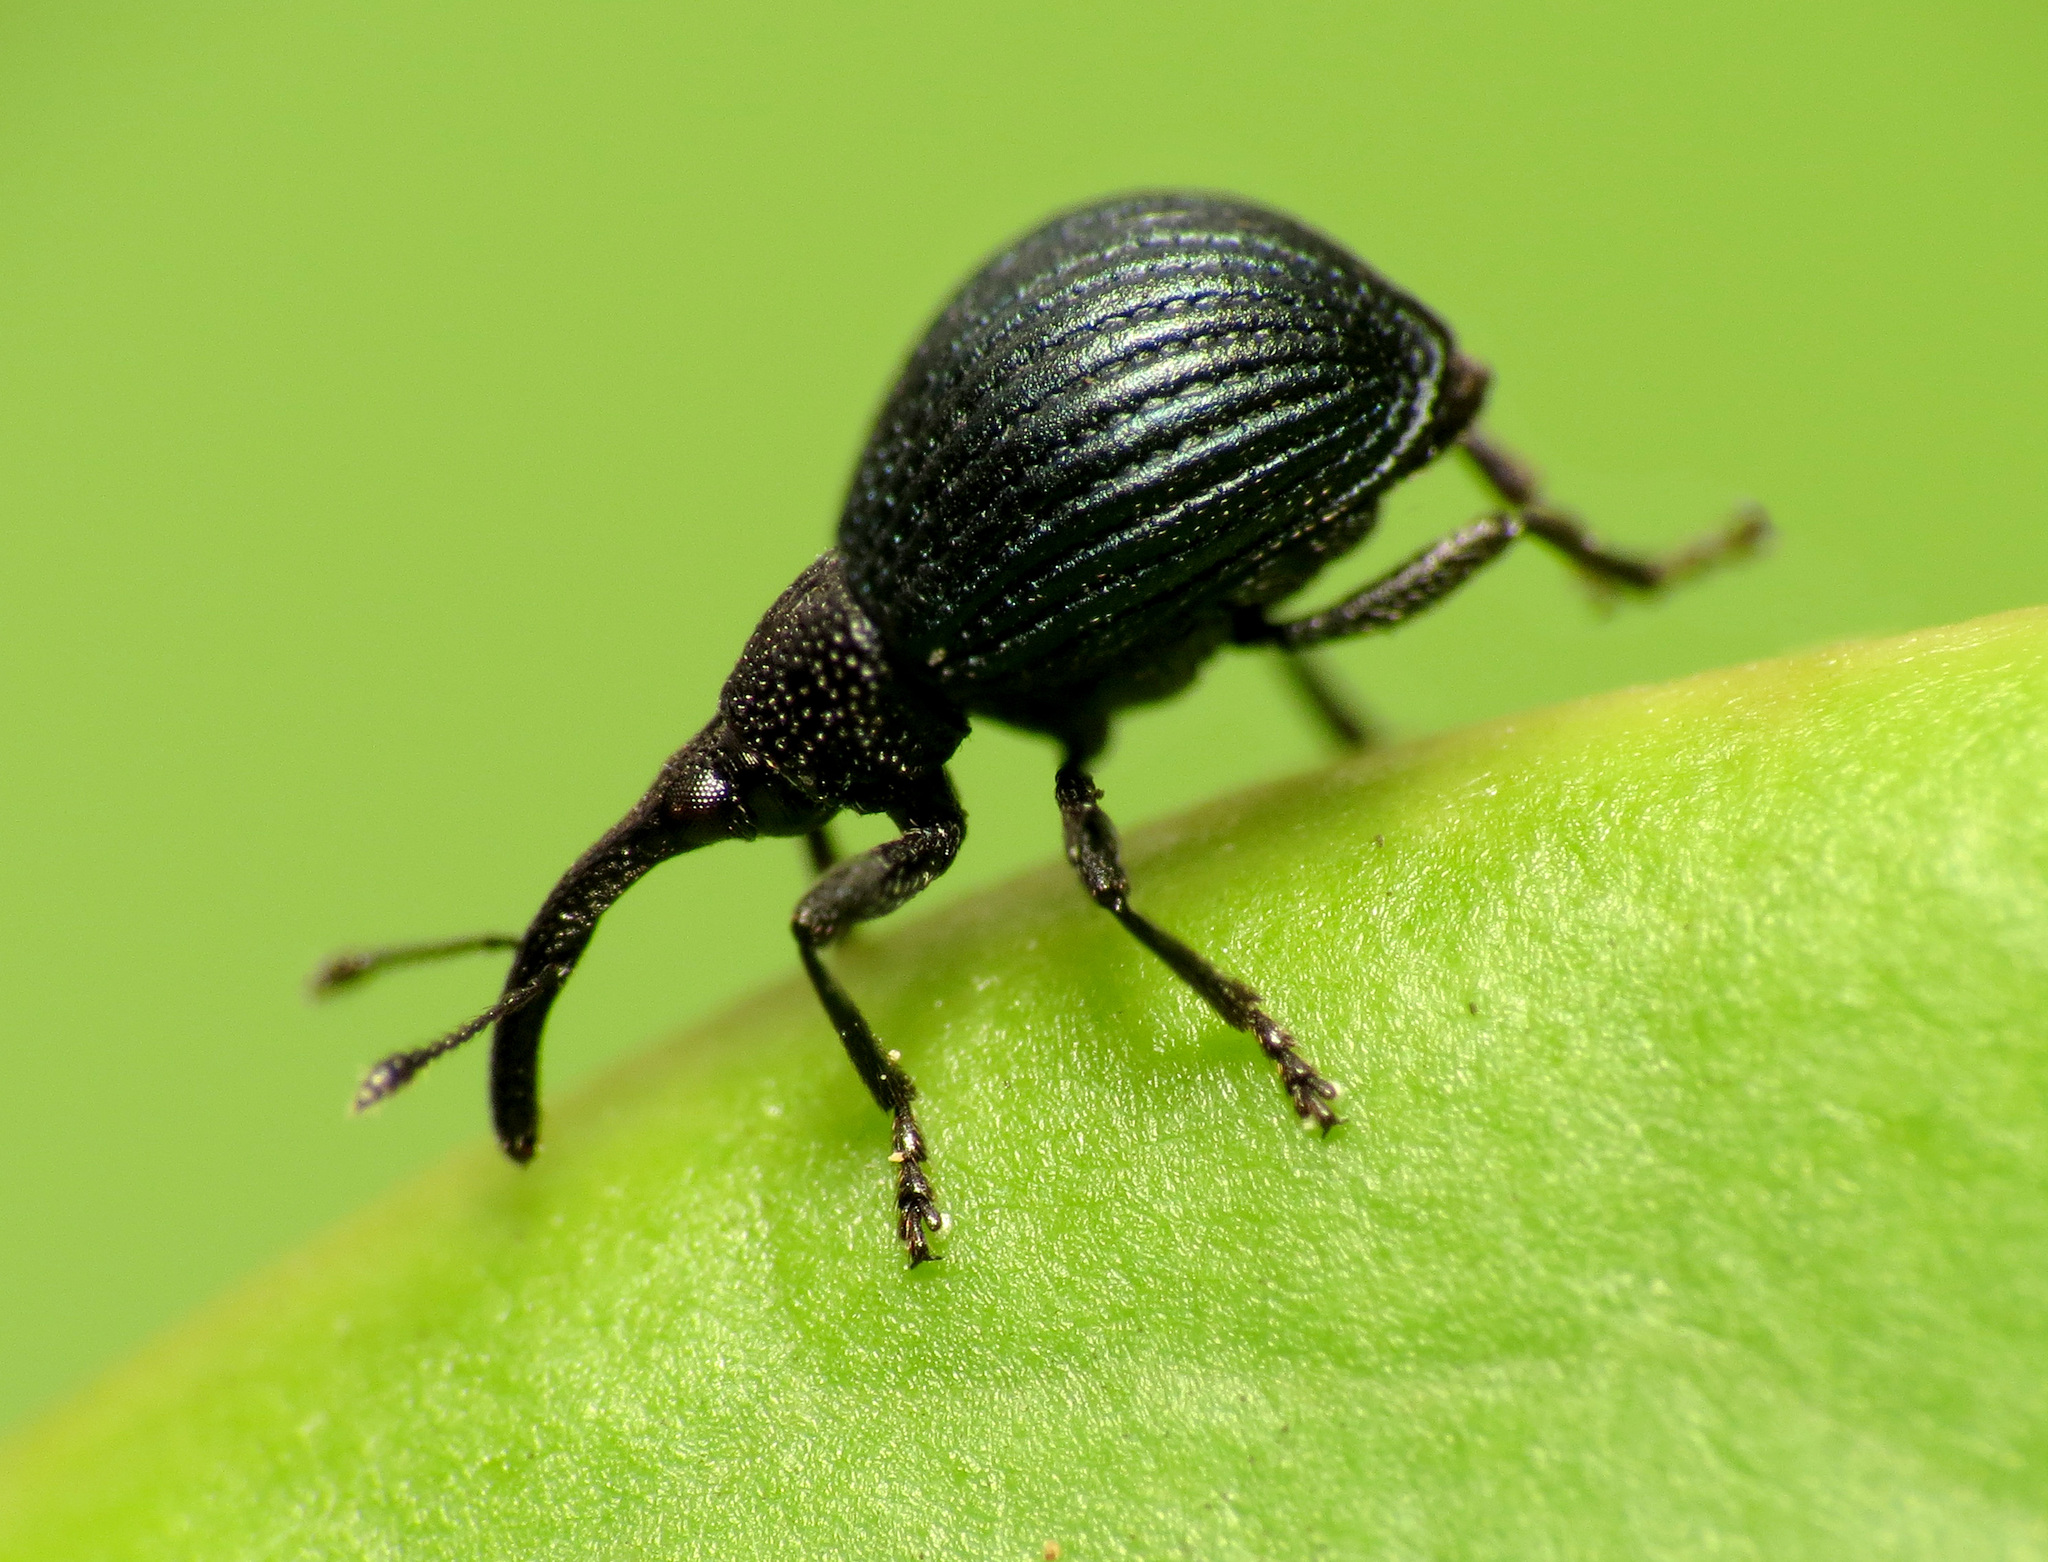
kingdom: Animalia
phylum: Arthropoda
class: Insecta
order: Coleoptera
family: Apionidae
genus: Holotrichapion
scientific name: Holotrichapion pisi
